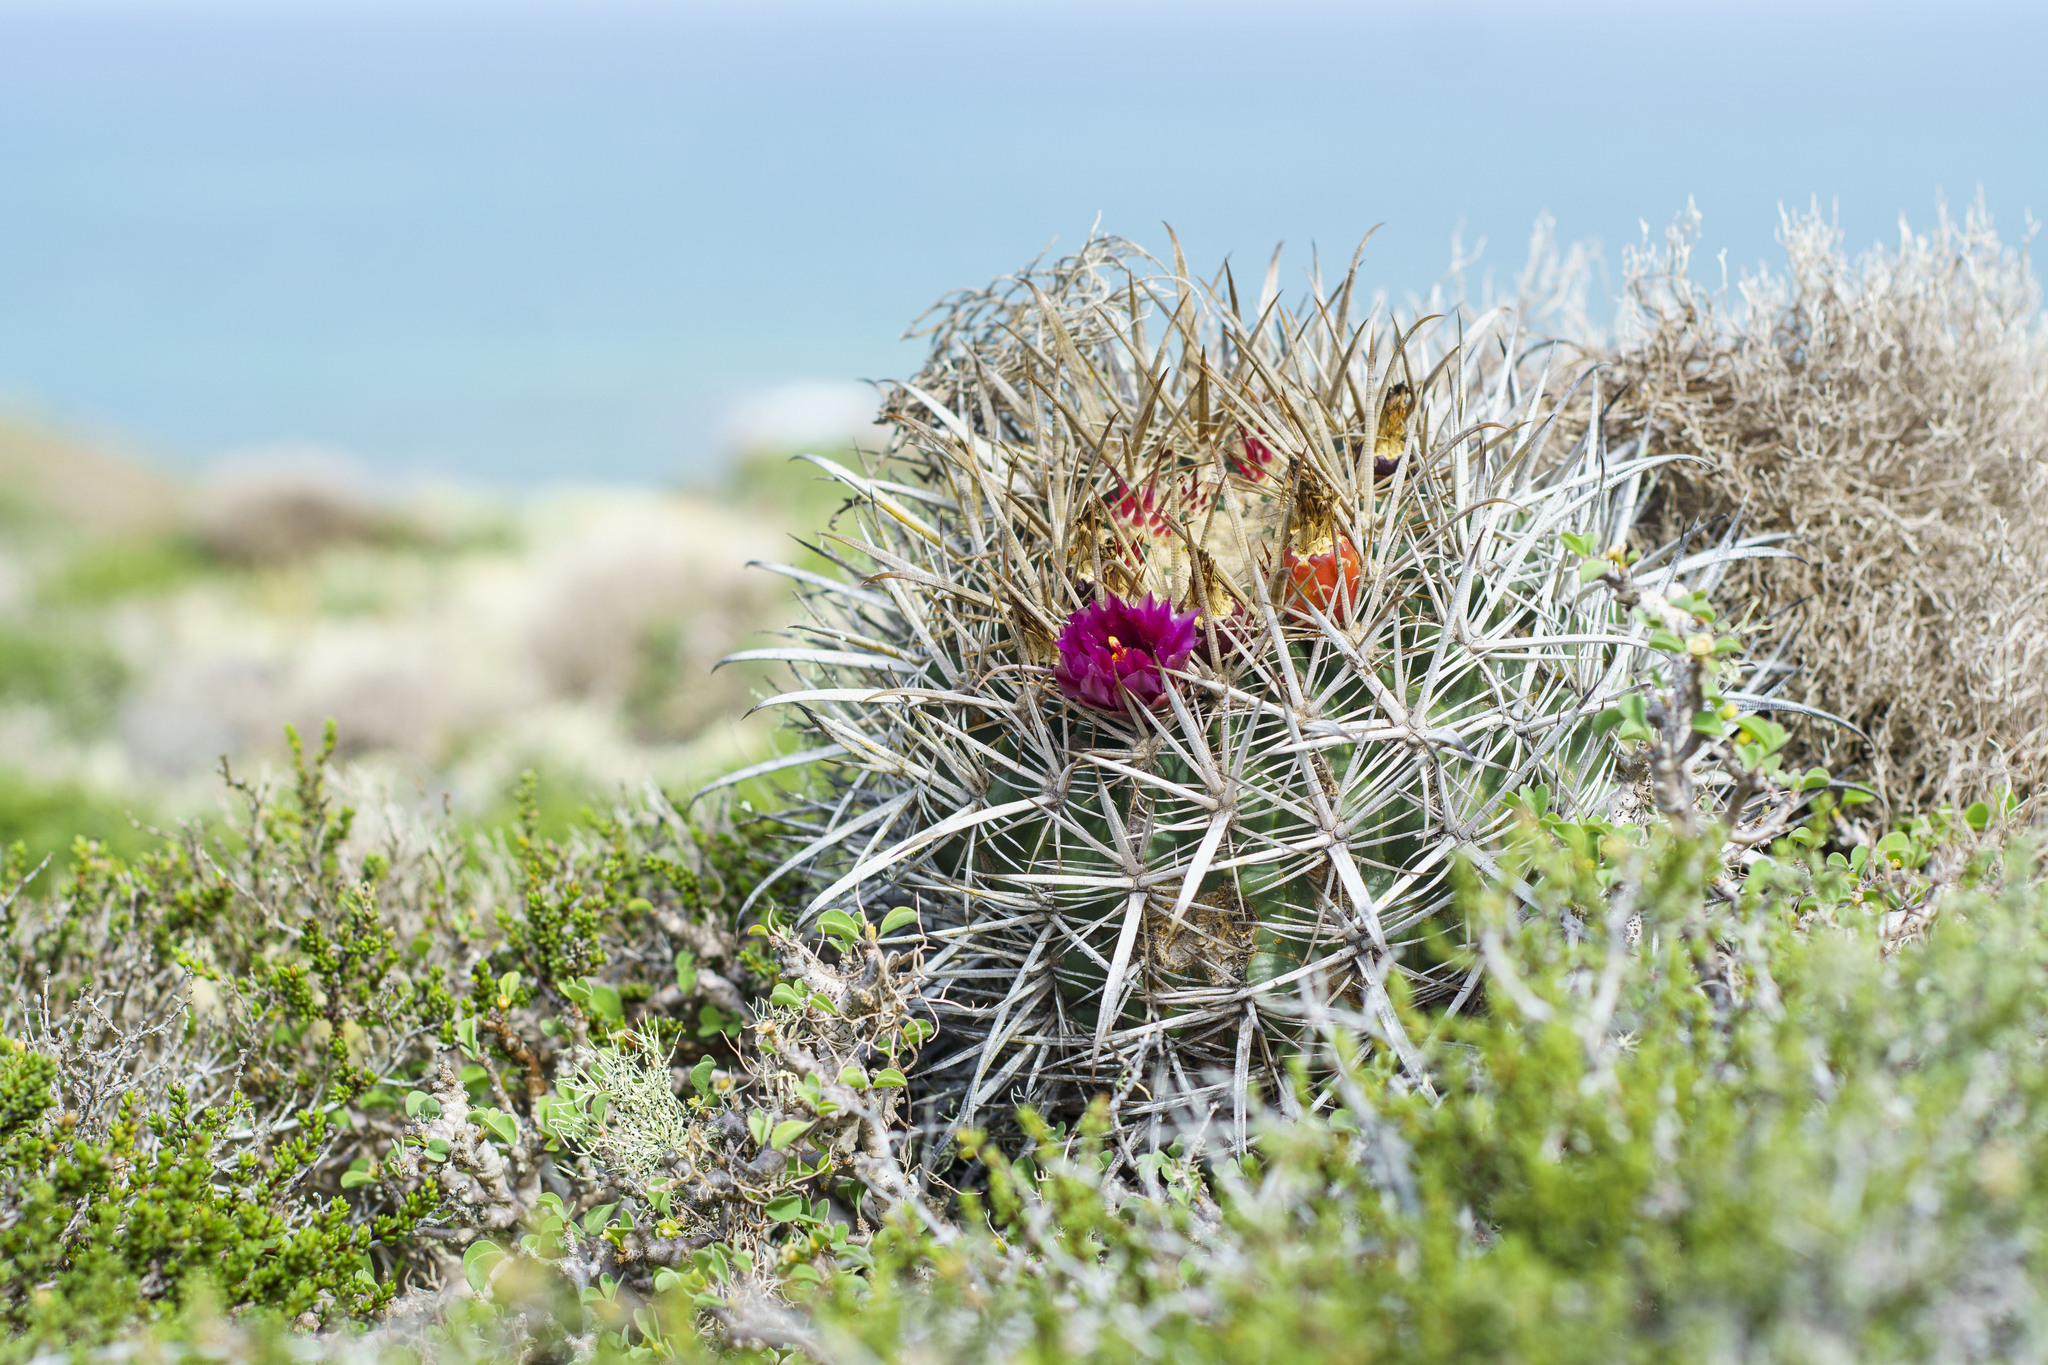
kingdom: Plantae
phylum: Tracheophyta
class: Magnoliopsida
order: Caryophyllales
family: Cactaceae
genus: Ferocactus
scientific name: Ferocactus fordii
